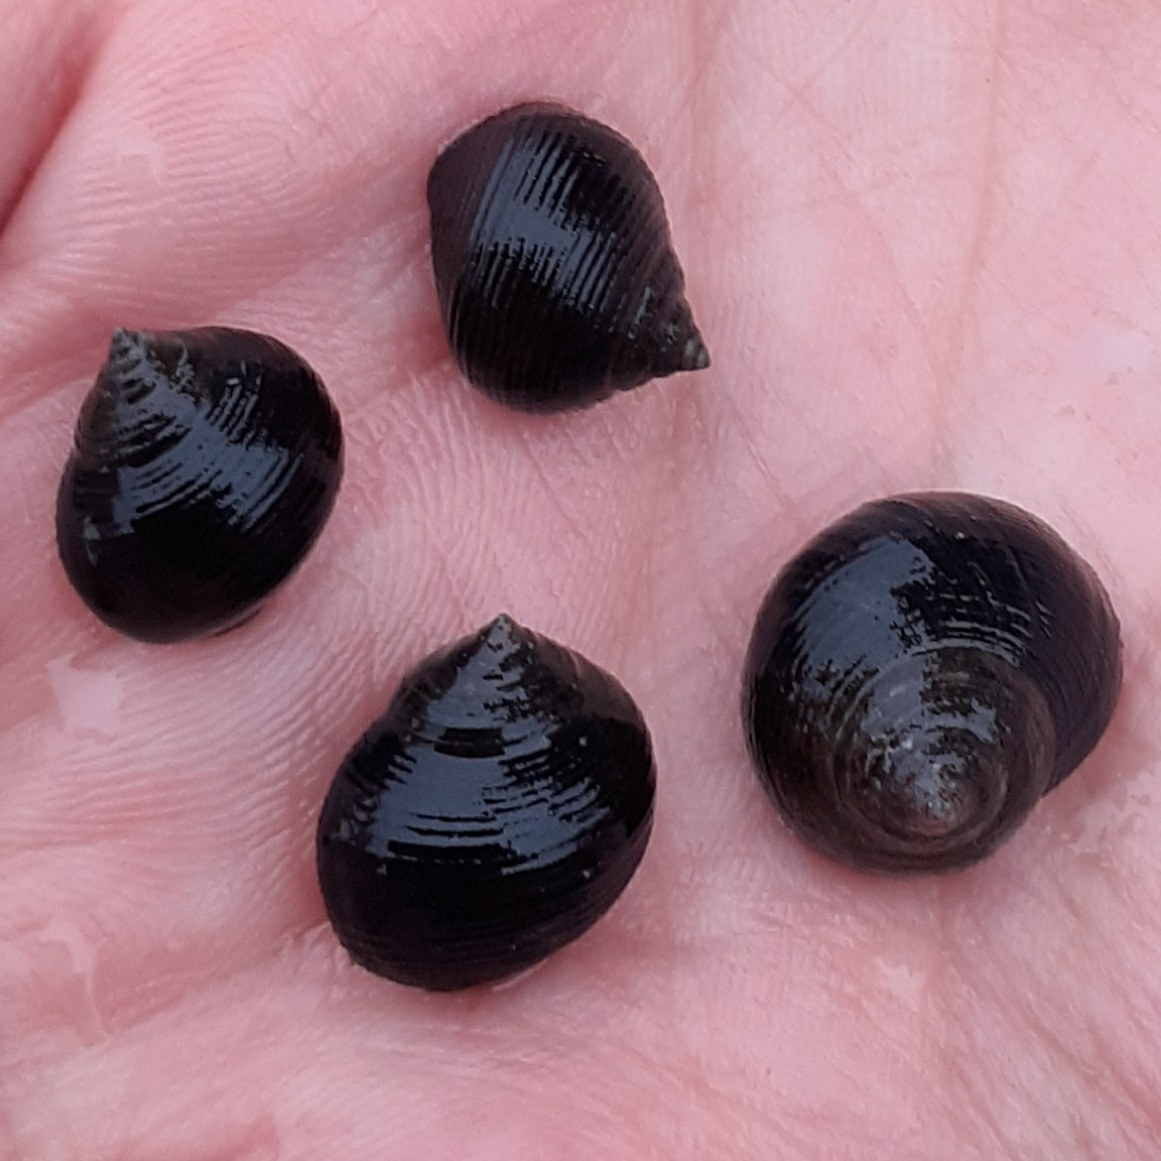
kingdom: Animalia
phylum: Mollusca
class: Gastropoda
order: Littorinimorpha
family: Littorinidae
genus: Littorina
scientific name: Littorina littorea
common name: Common periwinkle
